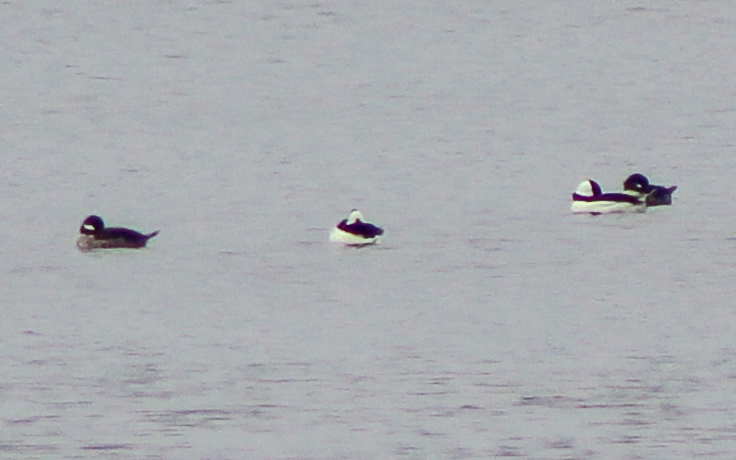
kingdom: Animalia
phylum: Chordata
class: Aves
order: Anseriformes
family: Anatidae
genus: Bucephala
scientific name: Bucephala albeola
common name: Bufflehead
